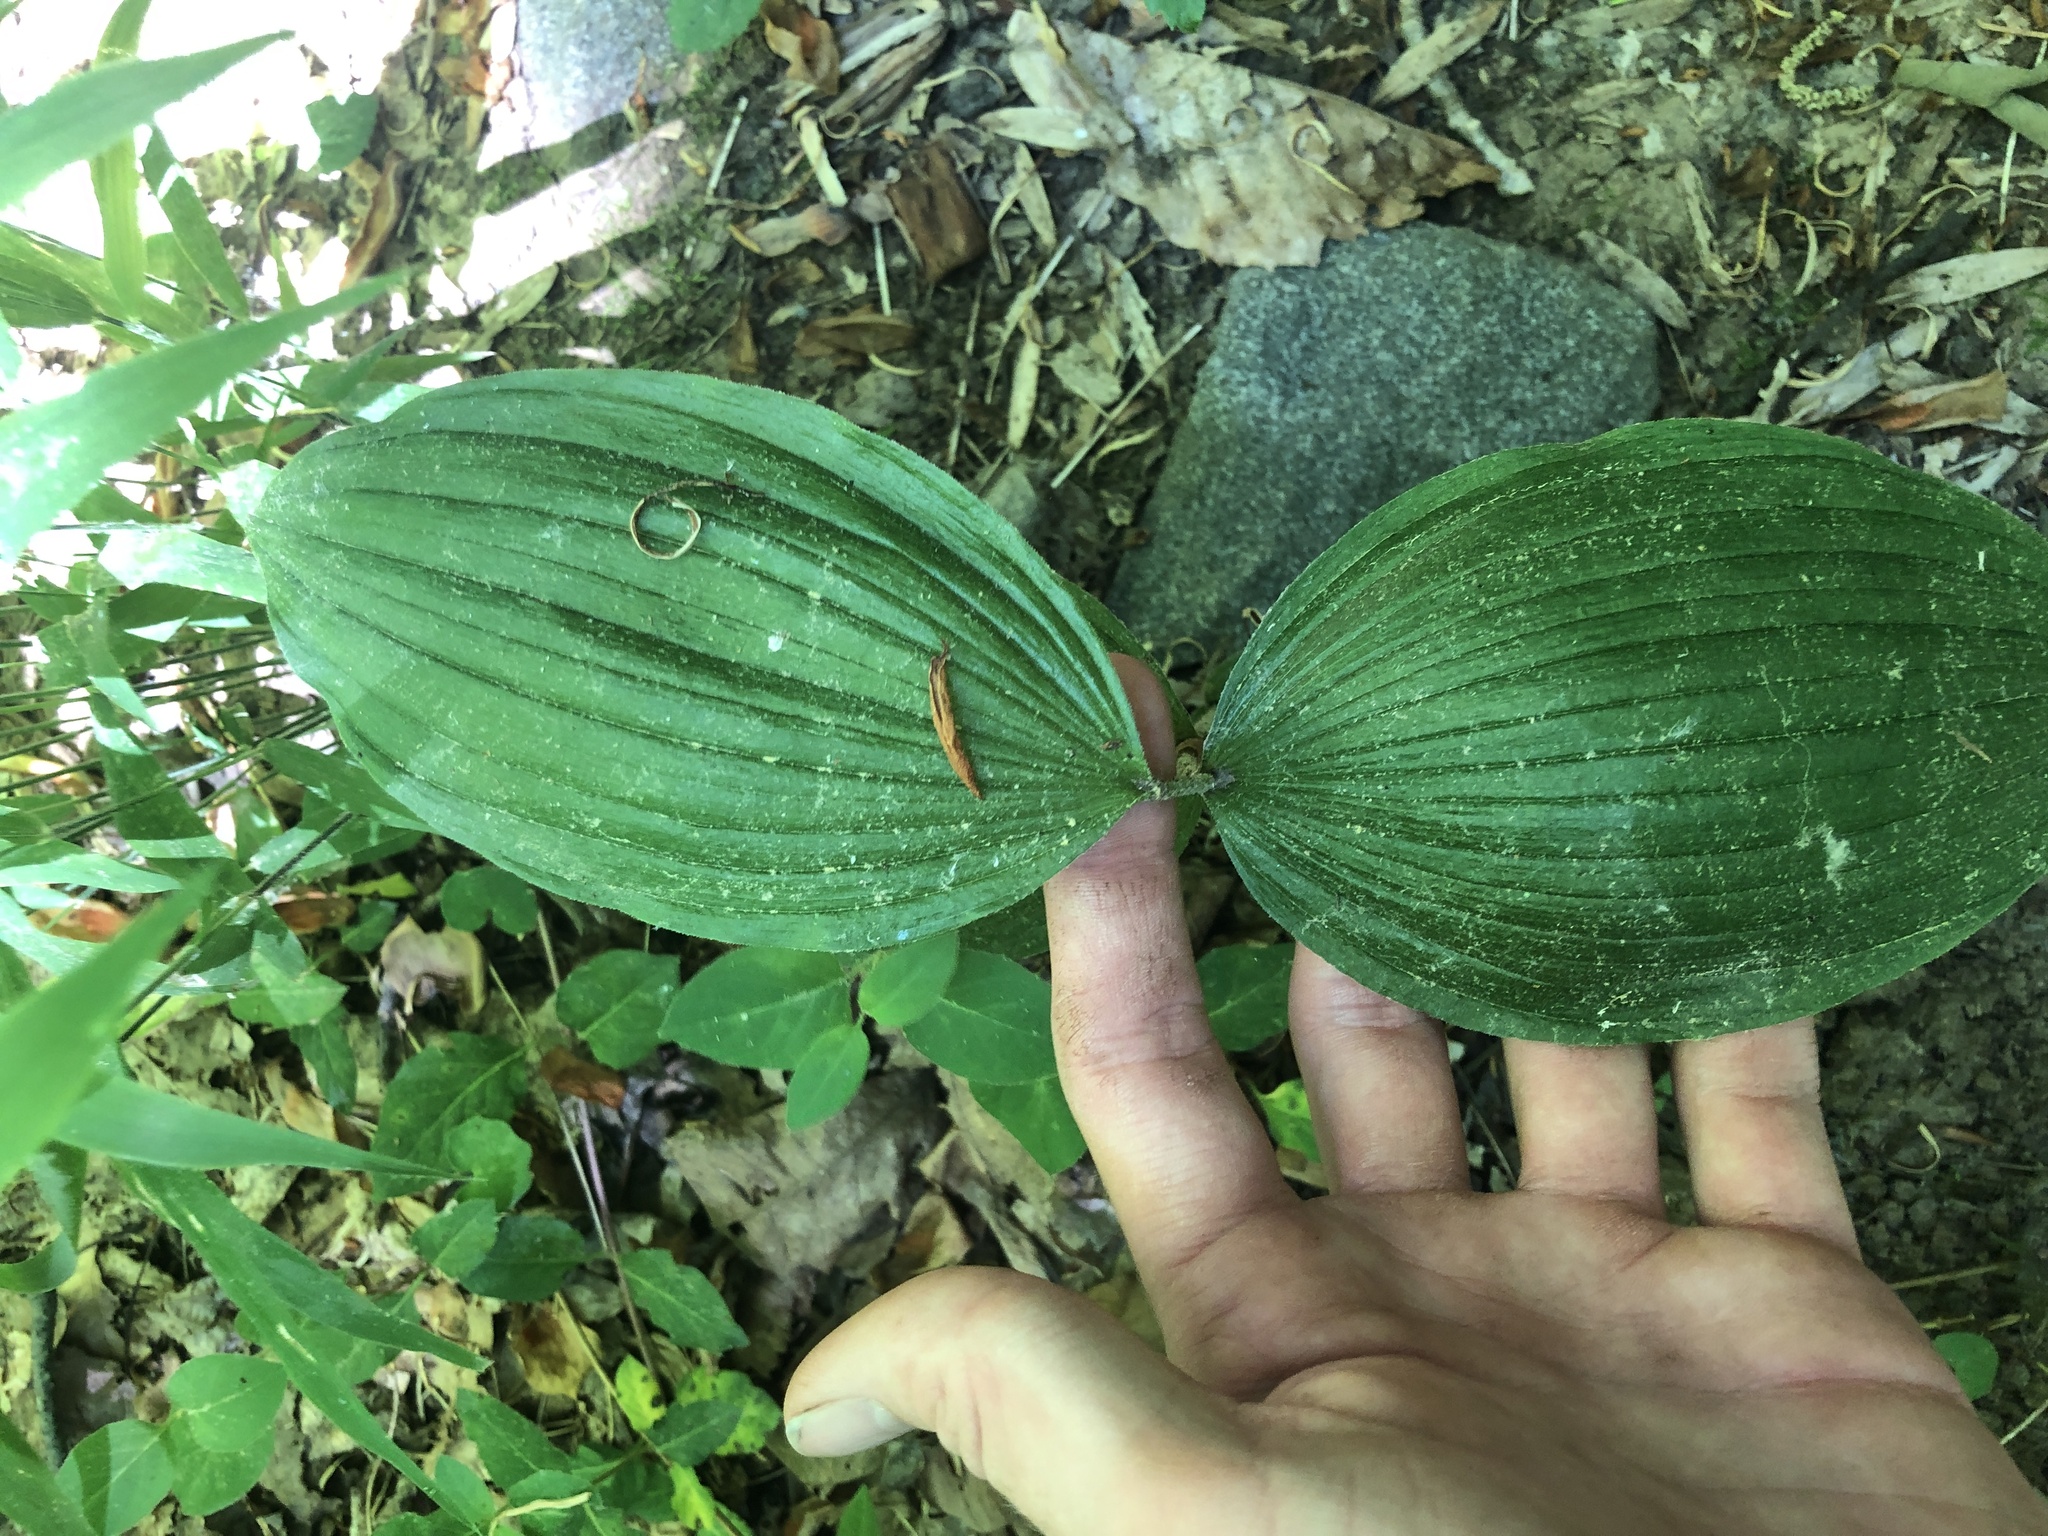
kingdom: Plantae
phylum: Tracheophyta
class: Liliopsida
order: Asparagales
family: Orchidaceae
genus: Cypripedium
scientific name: Cypripedium parviflorum
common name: American yellow lady's-slipper
